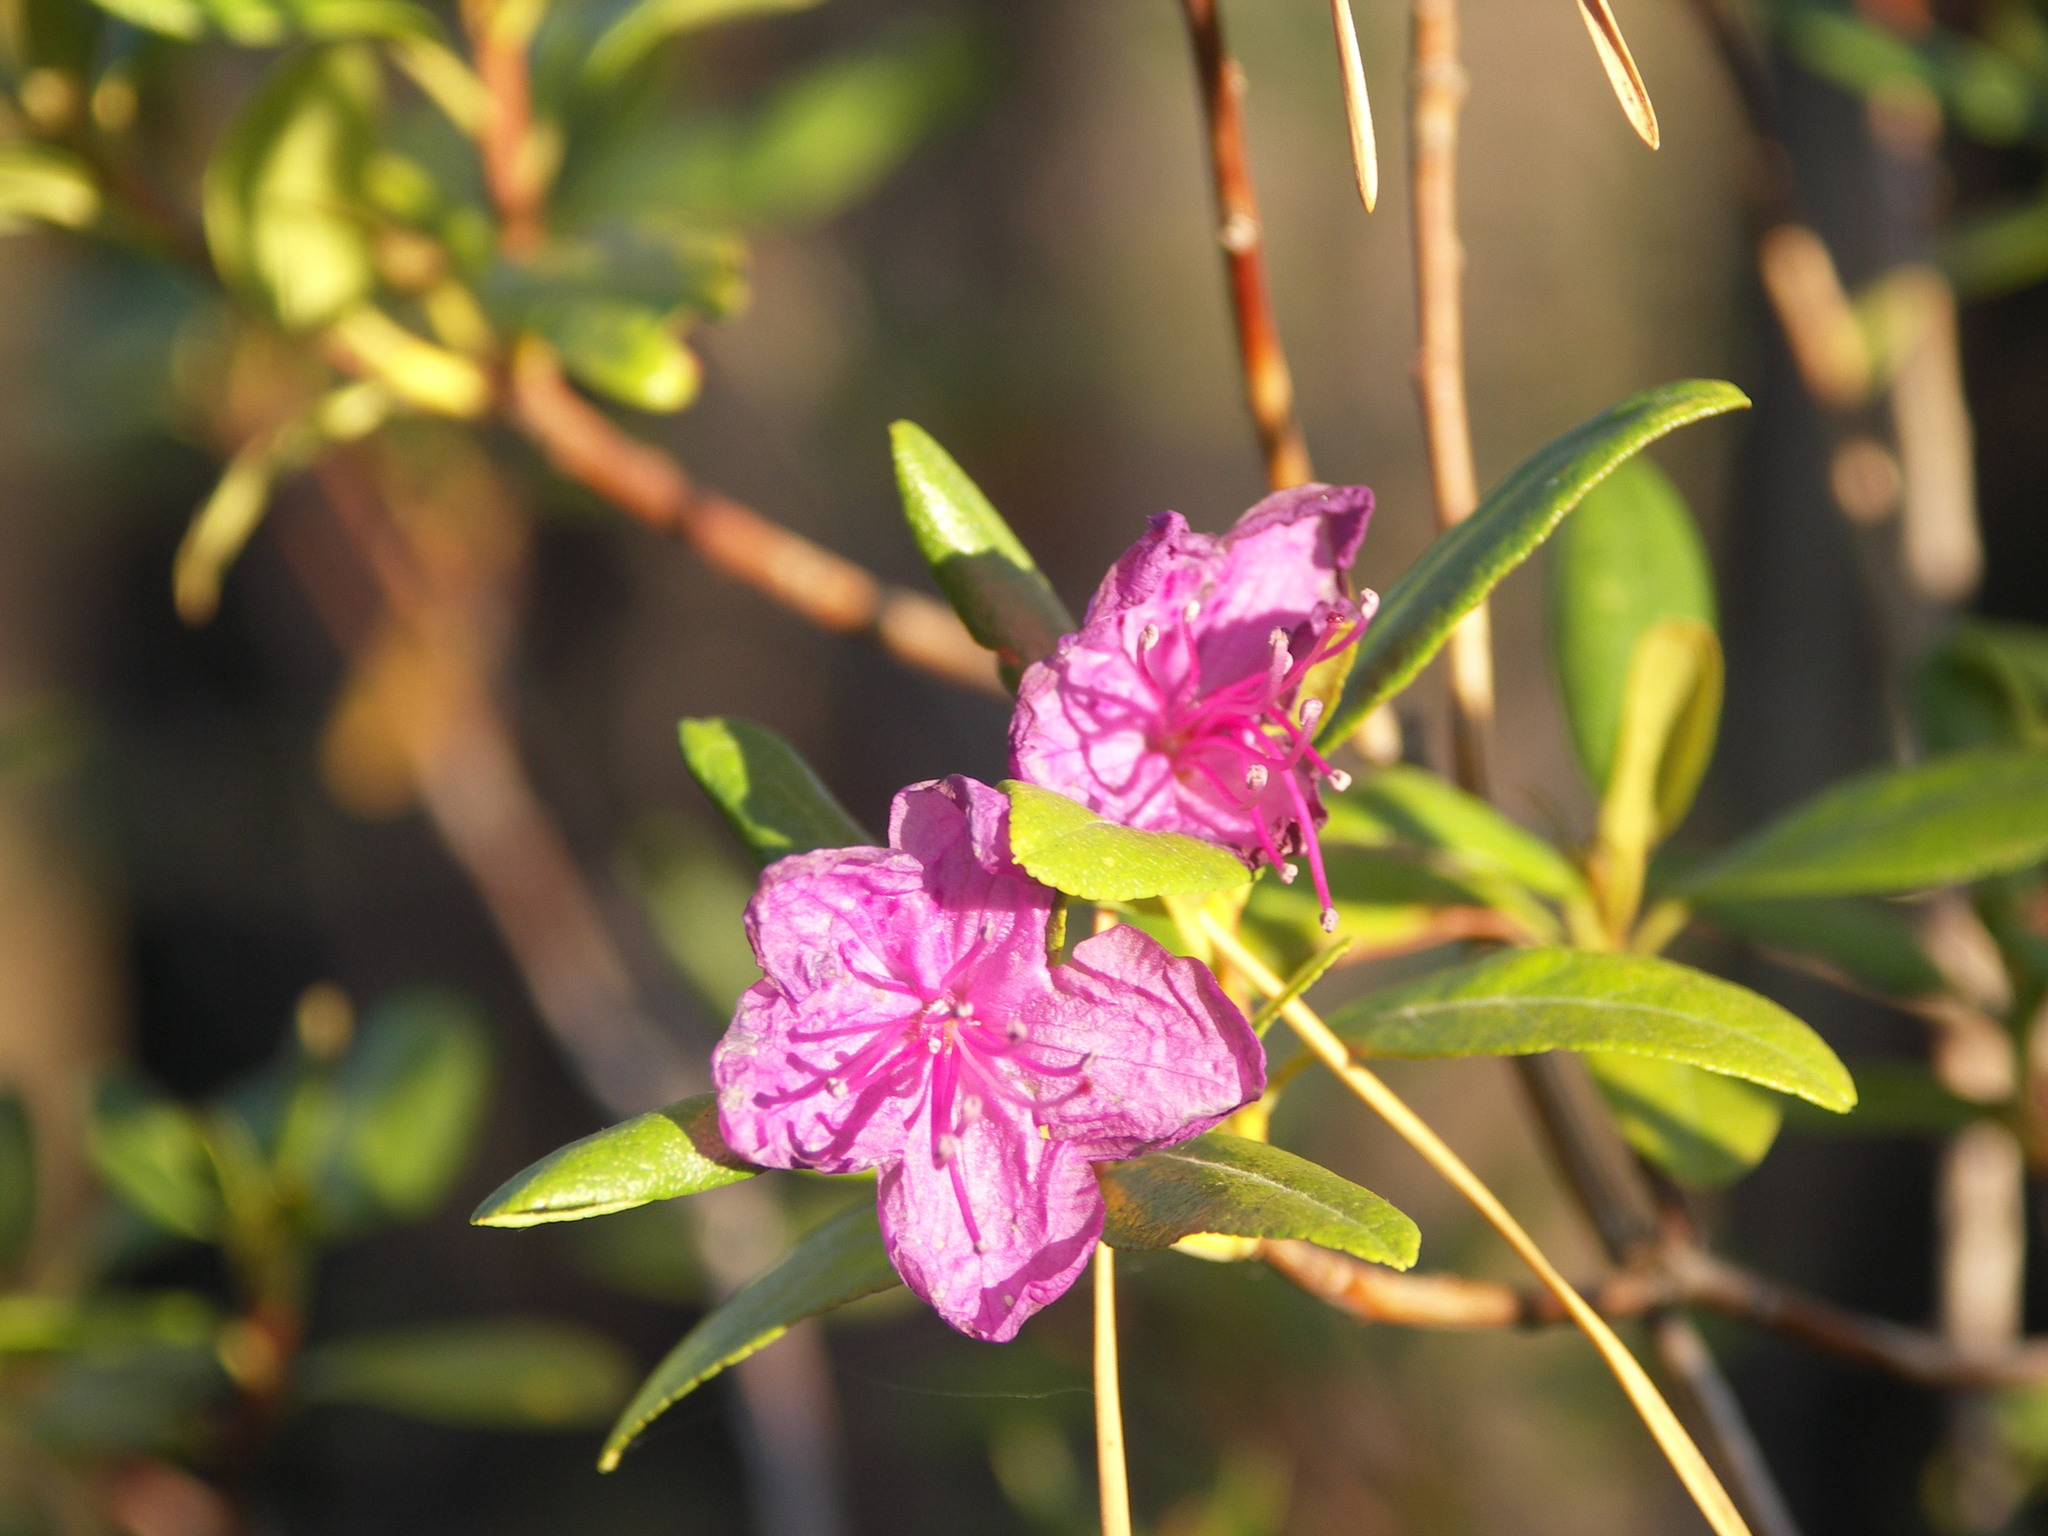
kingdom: Plantae
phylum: Tracheophyta
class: Magnoliopsida
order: Ericales
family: Ericaceae
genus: Rhododendron
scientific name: Rhododendron dauricum
